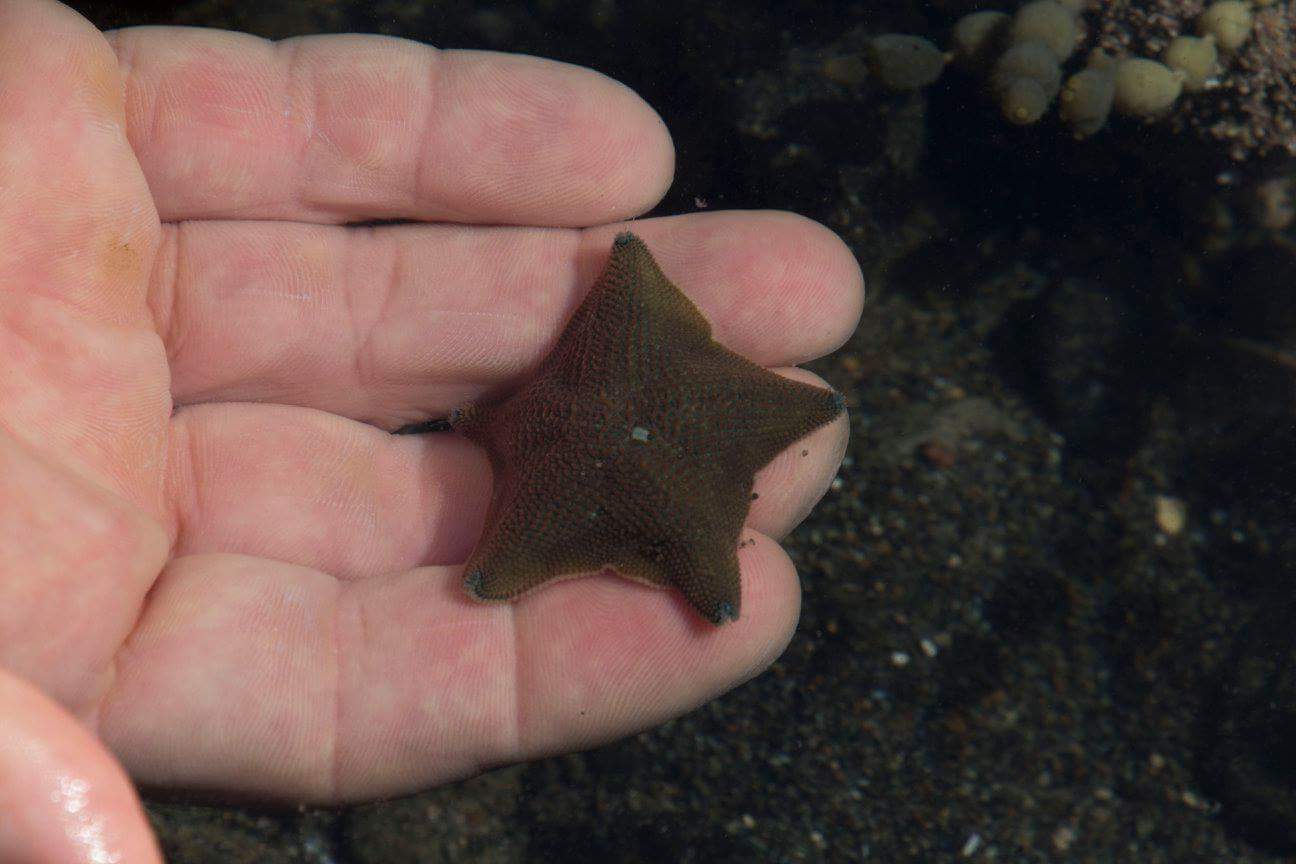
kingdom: Animalia
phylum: Echinodermata
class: Asteroidea
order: Valvatida
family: Asterinidae
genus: Patiriella
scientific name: Patiriella regularis
